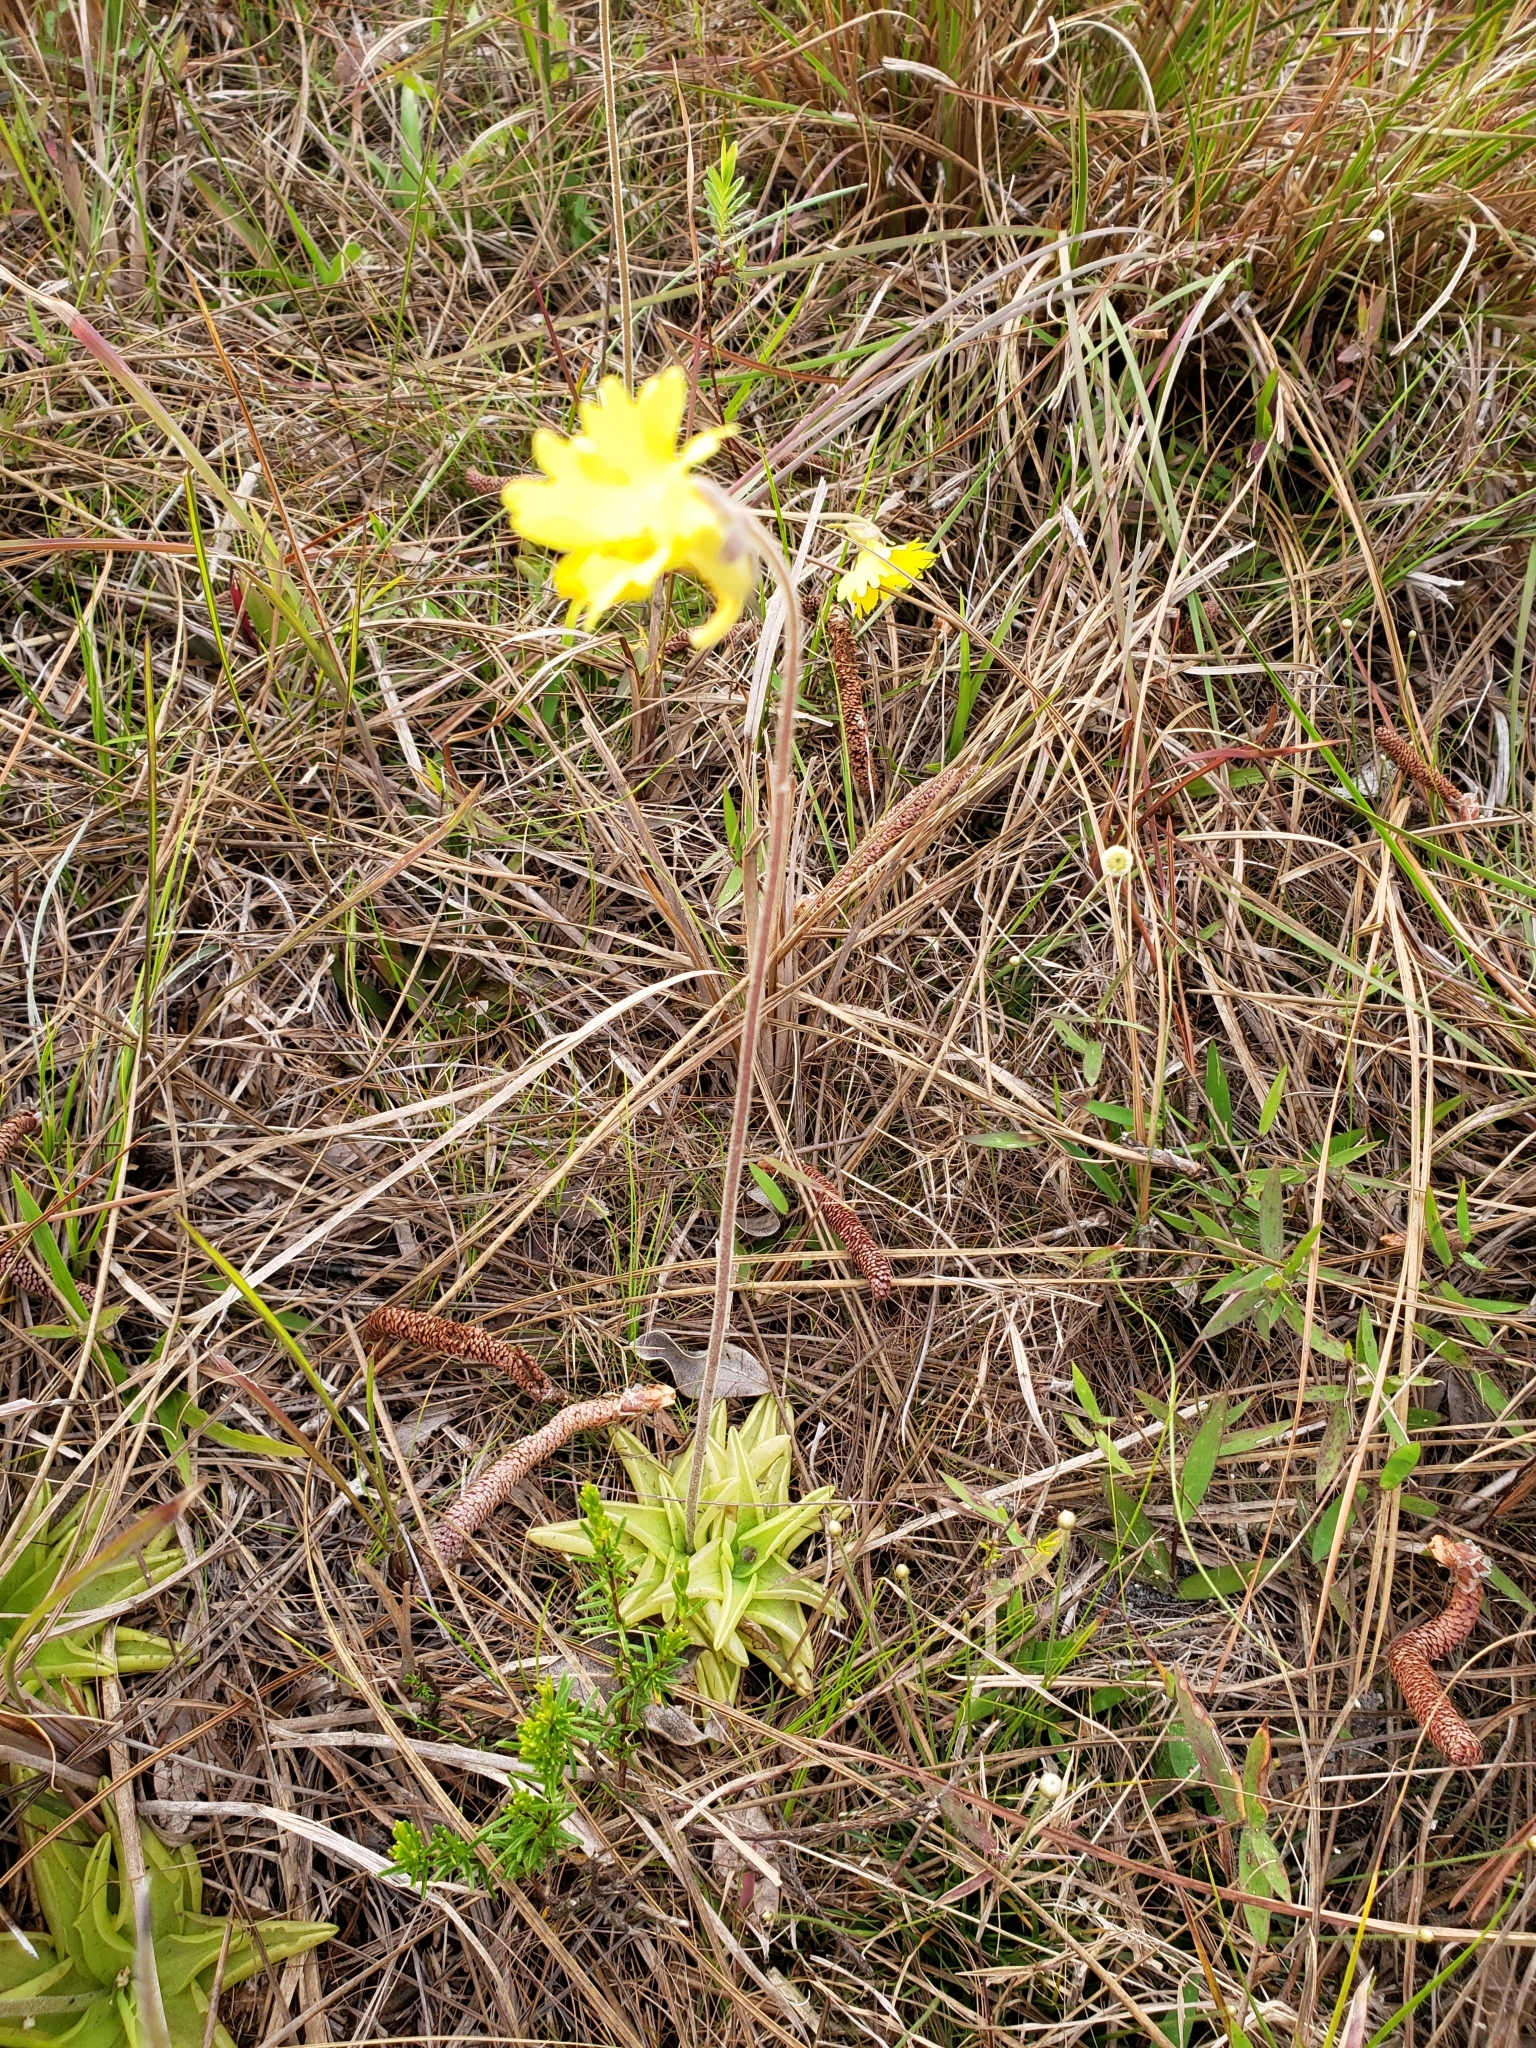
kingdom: Plantae
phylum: Tracheophyta
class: Magnoliopsida
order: Lamiales
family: Lentibulariaceae
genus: Pinguicula
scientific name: Pinguicula lutea
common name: Yellow butterwort
